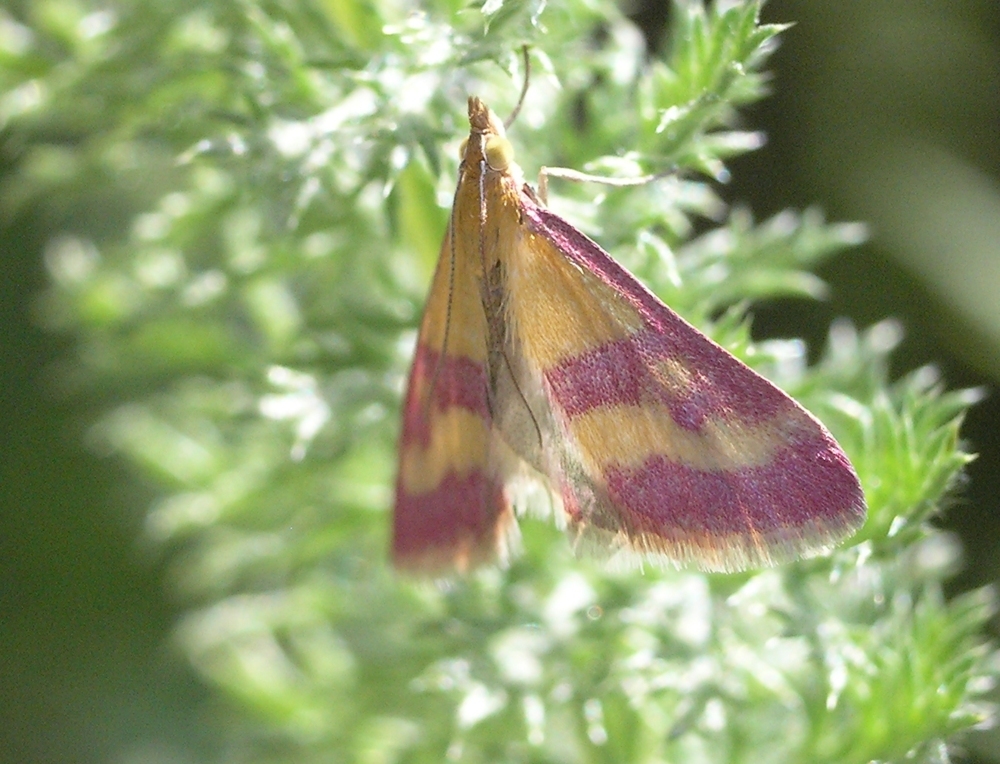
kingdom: Animalia
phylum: Arthropoda
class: Insecta
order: Lepidoptera
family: Crambidae
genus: Pyrausta
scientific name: Pyrausta sanguinalis
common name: Scarce crimson and gold
